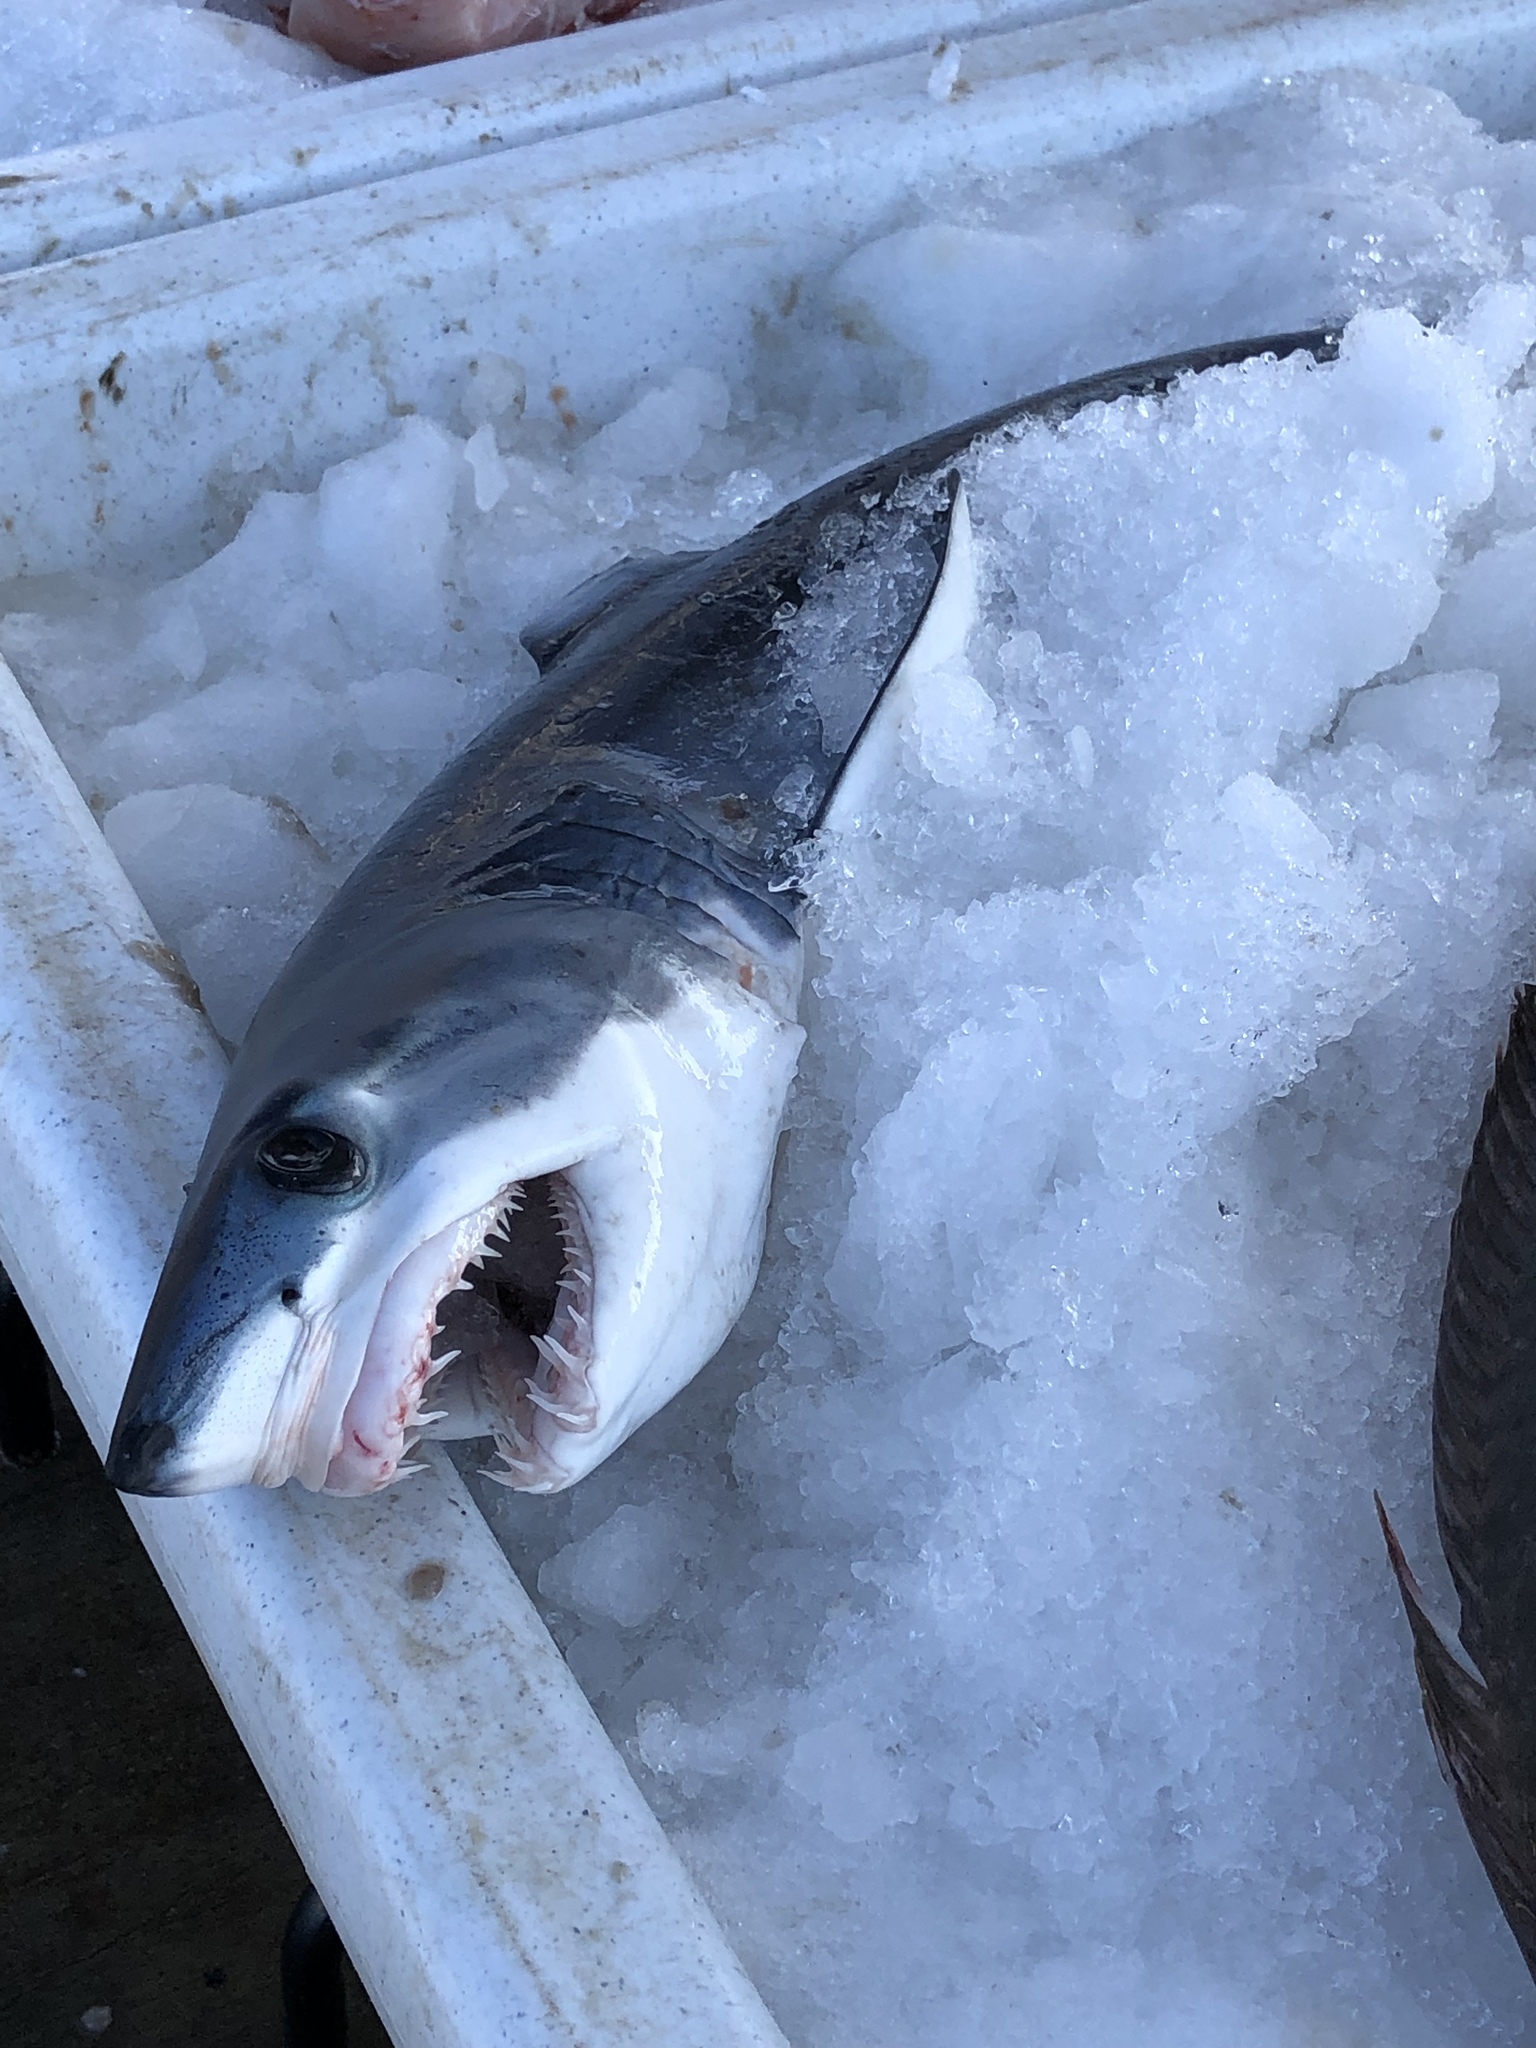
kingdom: Animalia
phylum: Chordata
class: Elasmobranchii
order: Lamniformes
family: Lamnidae
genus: Isurus
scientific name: Isurus oxyrinchus
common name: Shortfin mako
